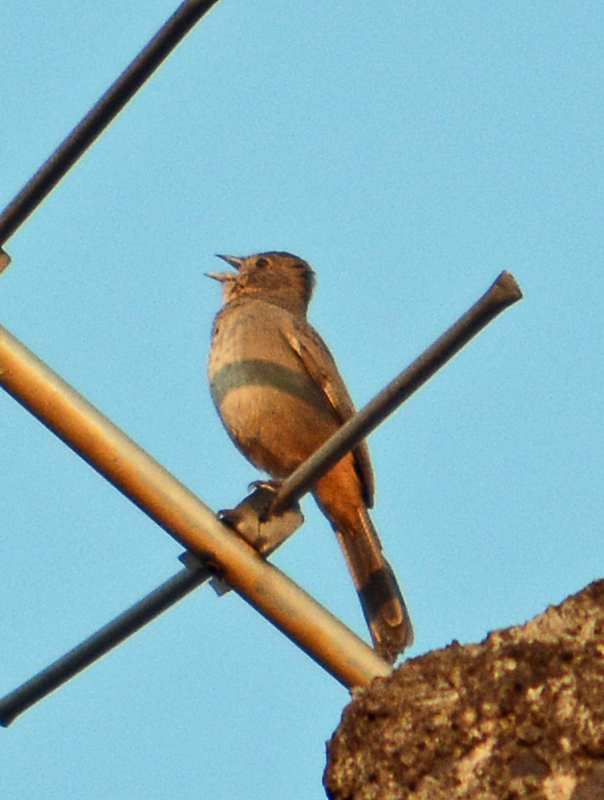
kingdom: Animalia
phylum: Chordata
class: Aves
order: Passeriformes
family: Passerellidae
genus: Melozone
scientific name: Melozone fusca
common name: Canyon towhee
